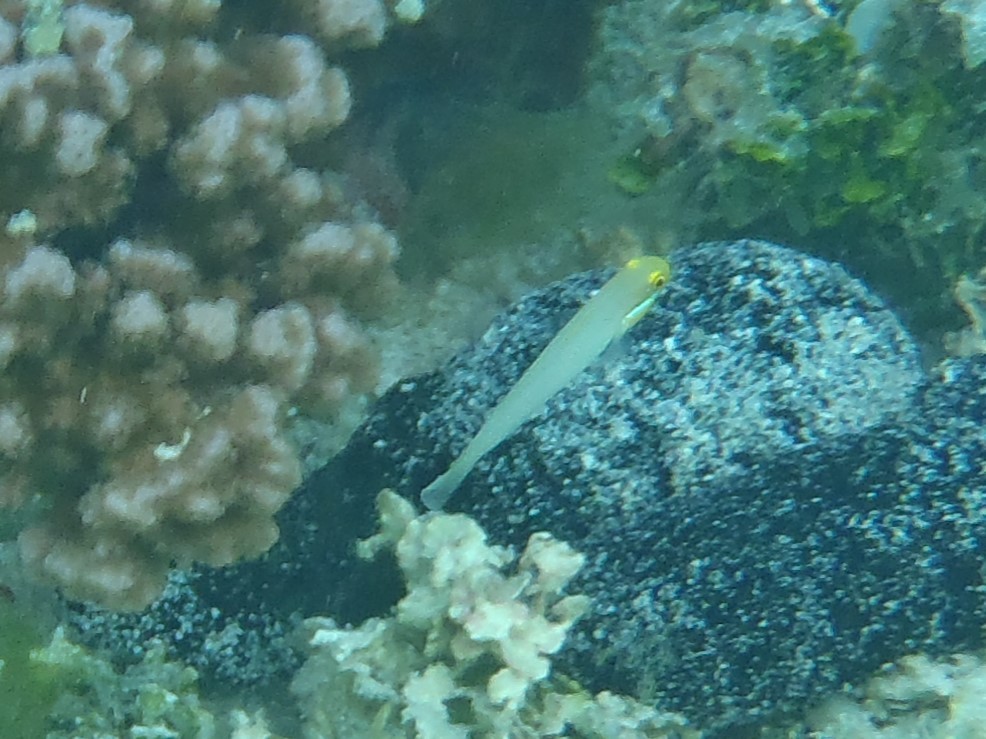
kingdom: Animalia
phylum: Chordata
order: Perciformes
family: Gobiidae
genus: Valenciennea
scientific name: Valenciennea strigata
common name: Blueband goby
